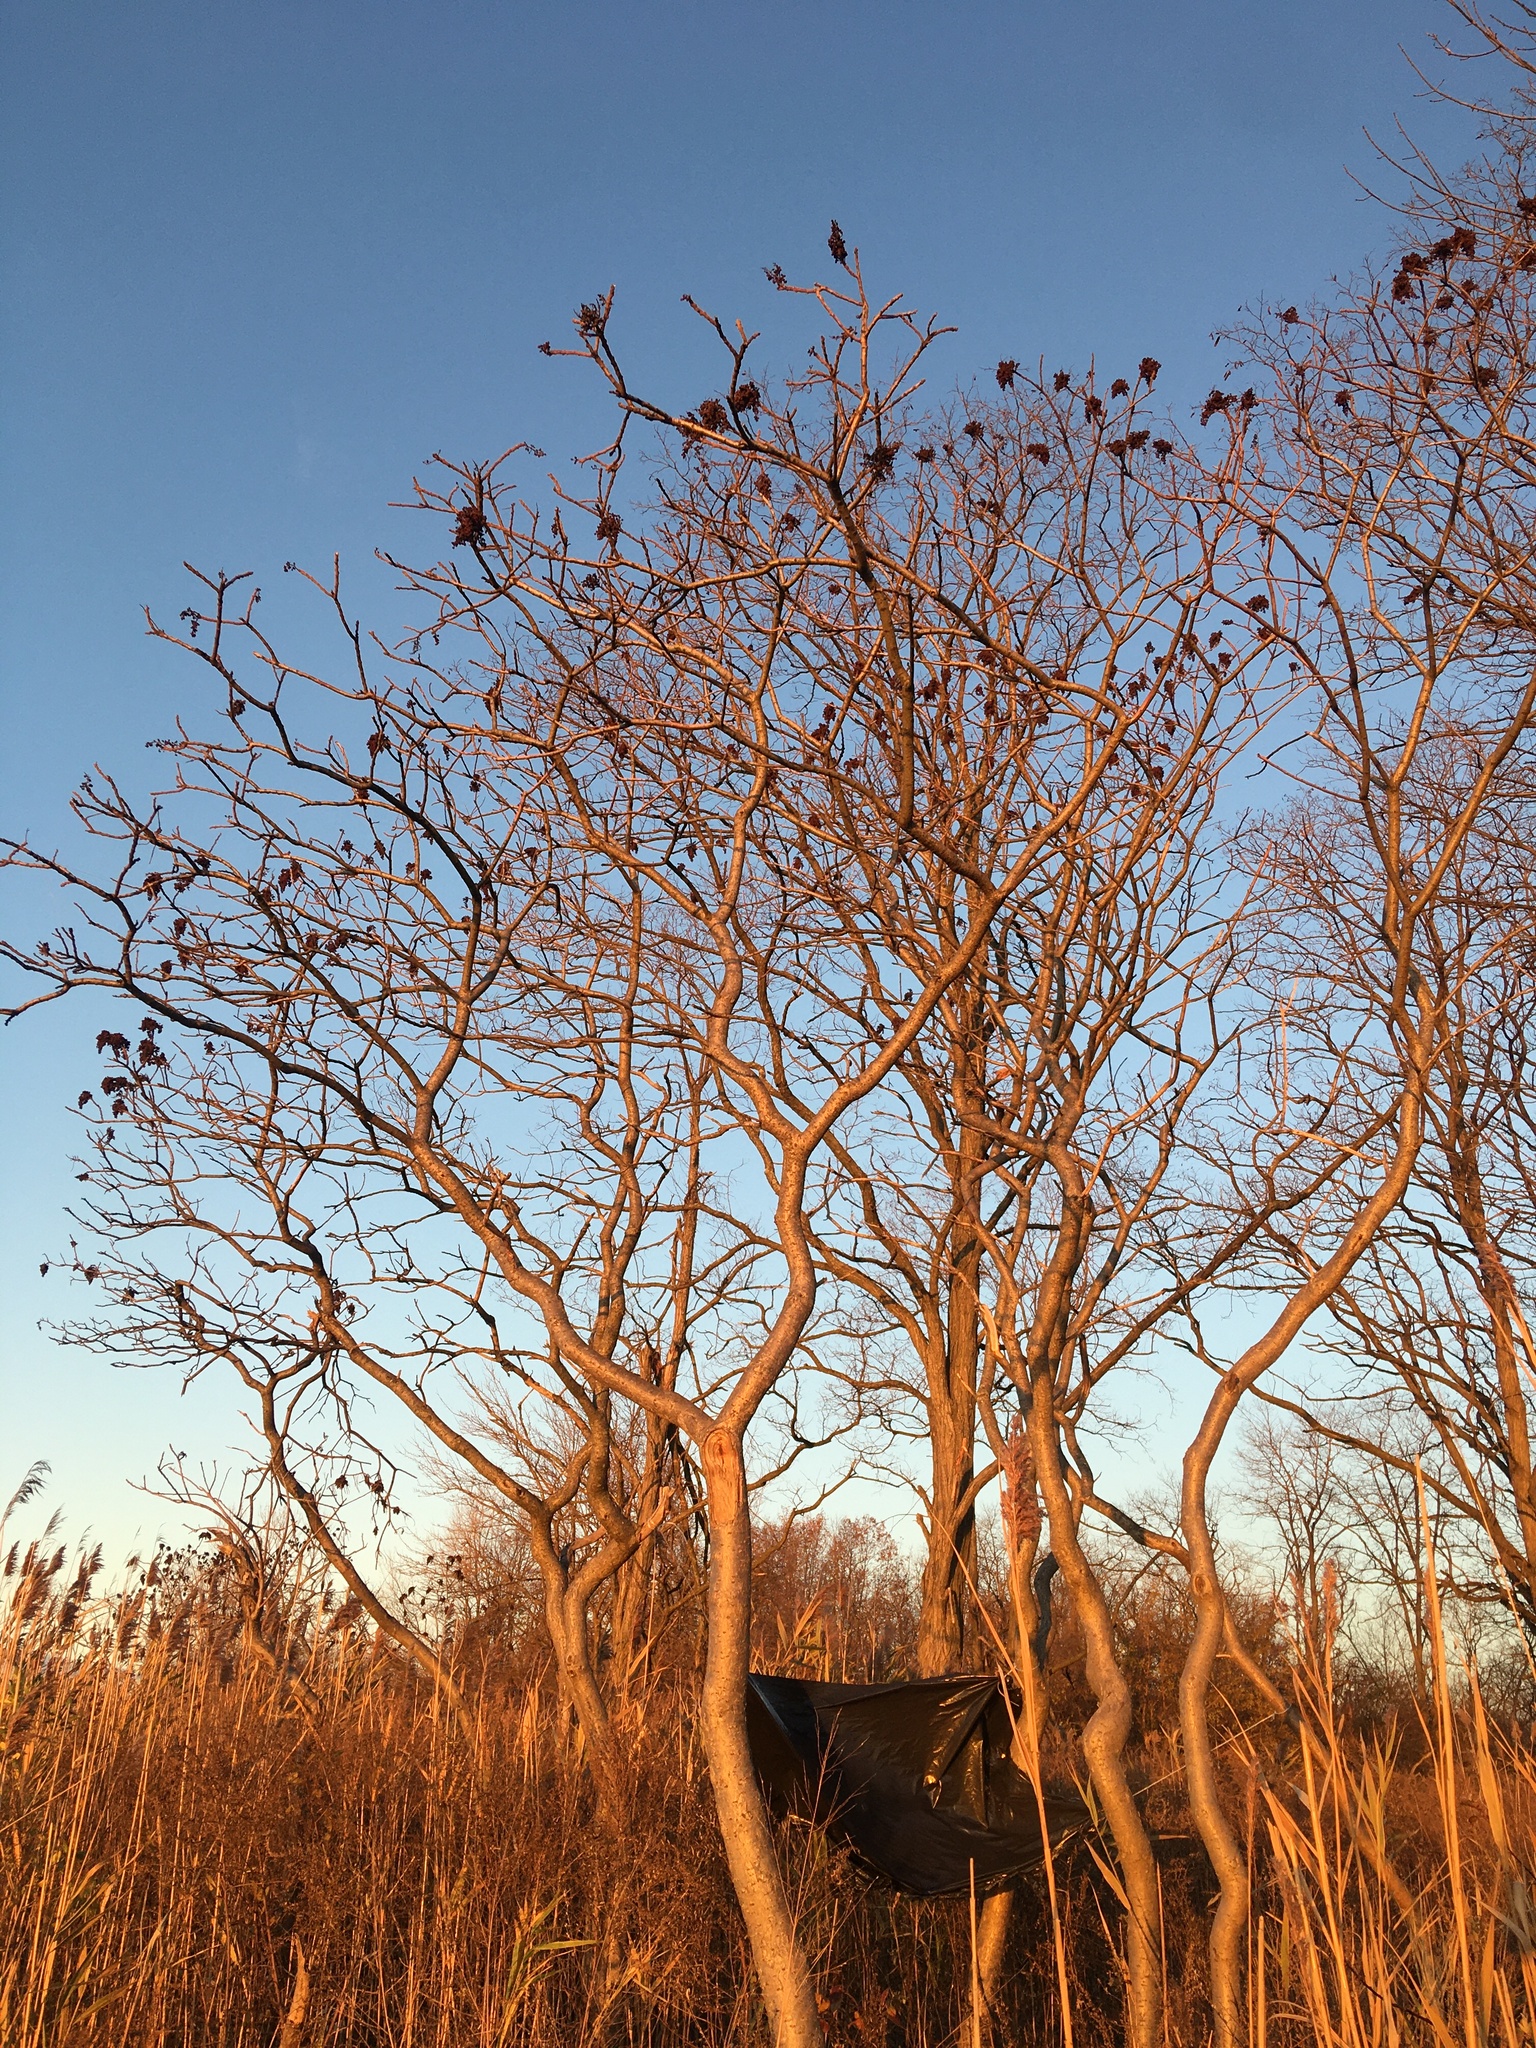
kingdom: Plantae
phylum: Tracheophyta
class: Magnoliopsida
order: Sapindales
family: Anacardiaceae
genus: Rhus
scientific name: Rhus copallina
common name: Shining sumac
